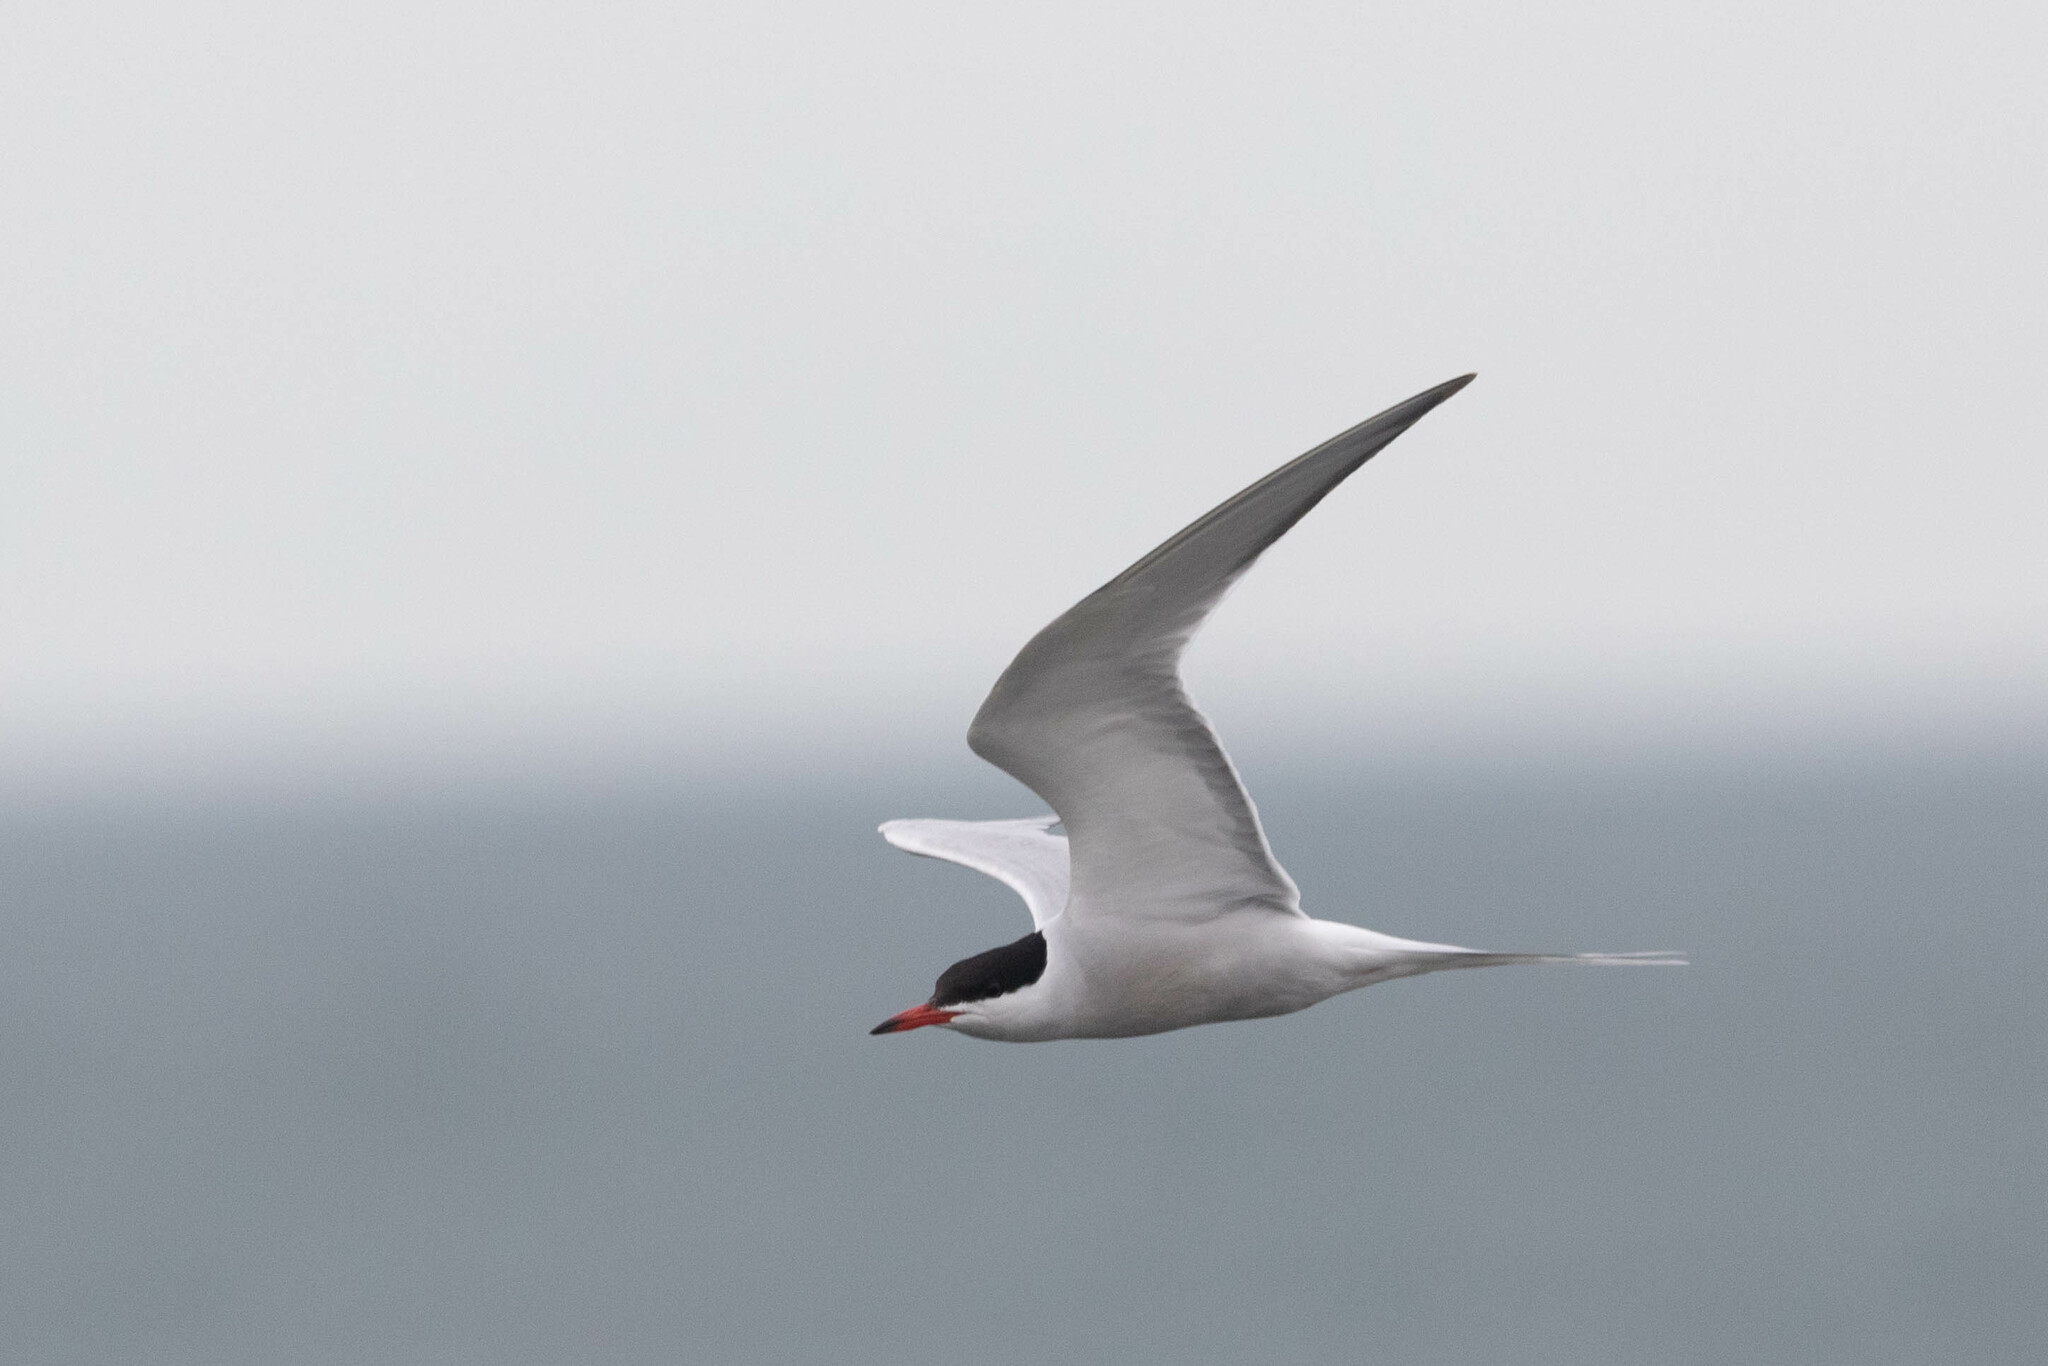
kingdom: Animalia
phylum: Chordata
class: Aves
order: Charadriiformes
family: Laridae
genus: Sterna
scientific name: Sterna hirundo
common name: Common tern
